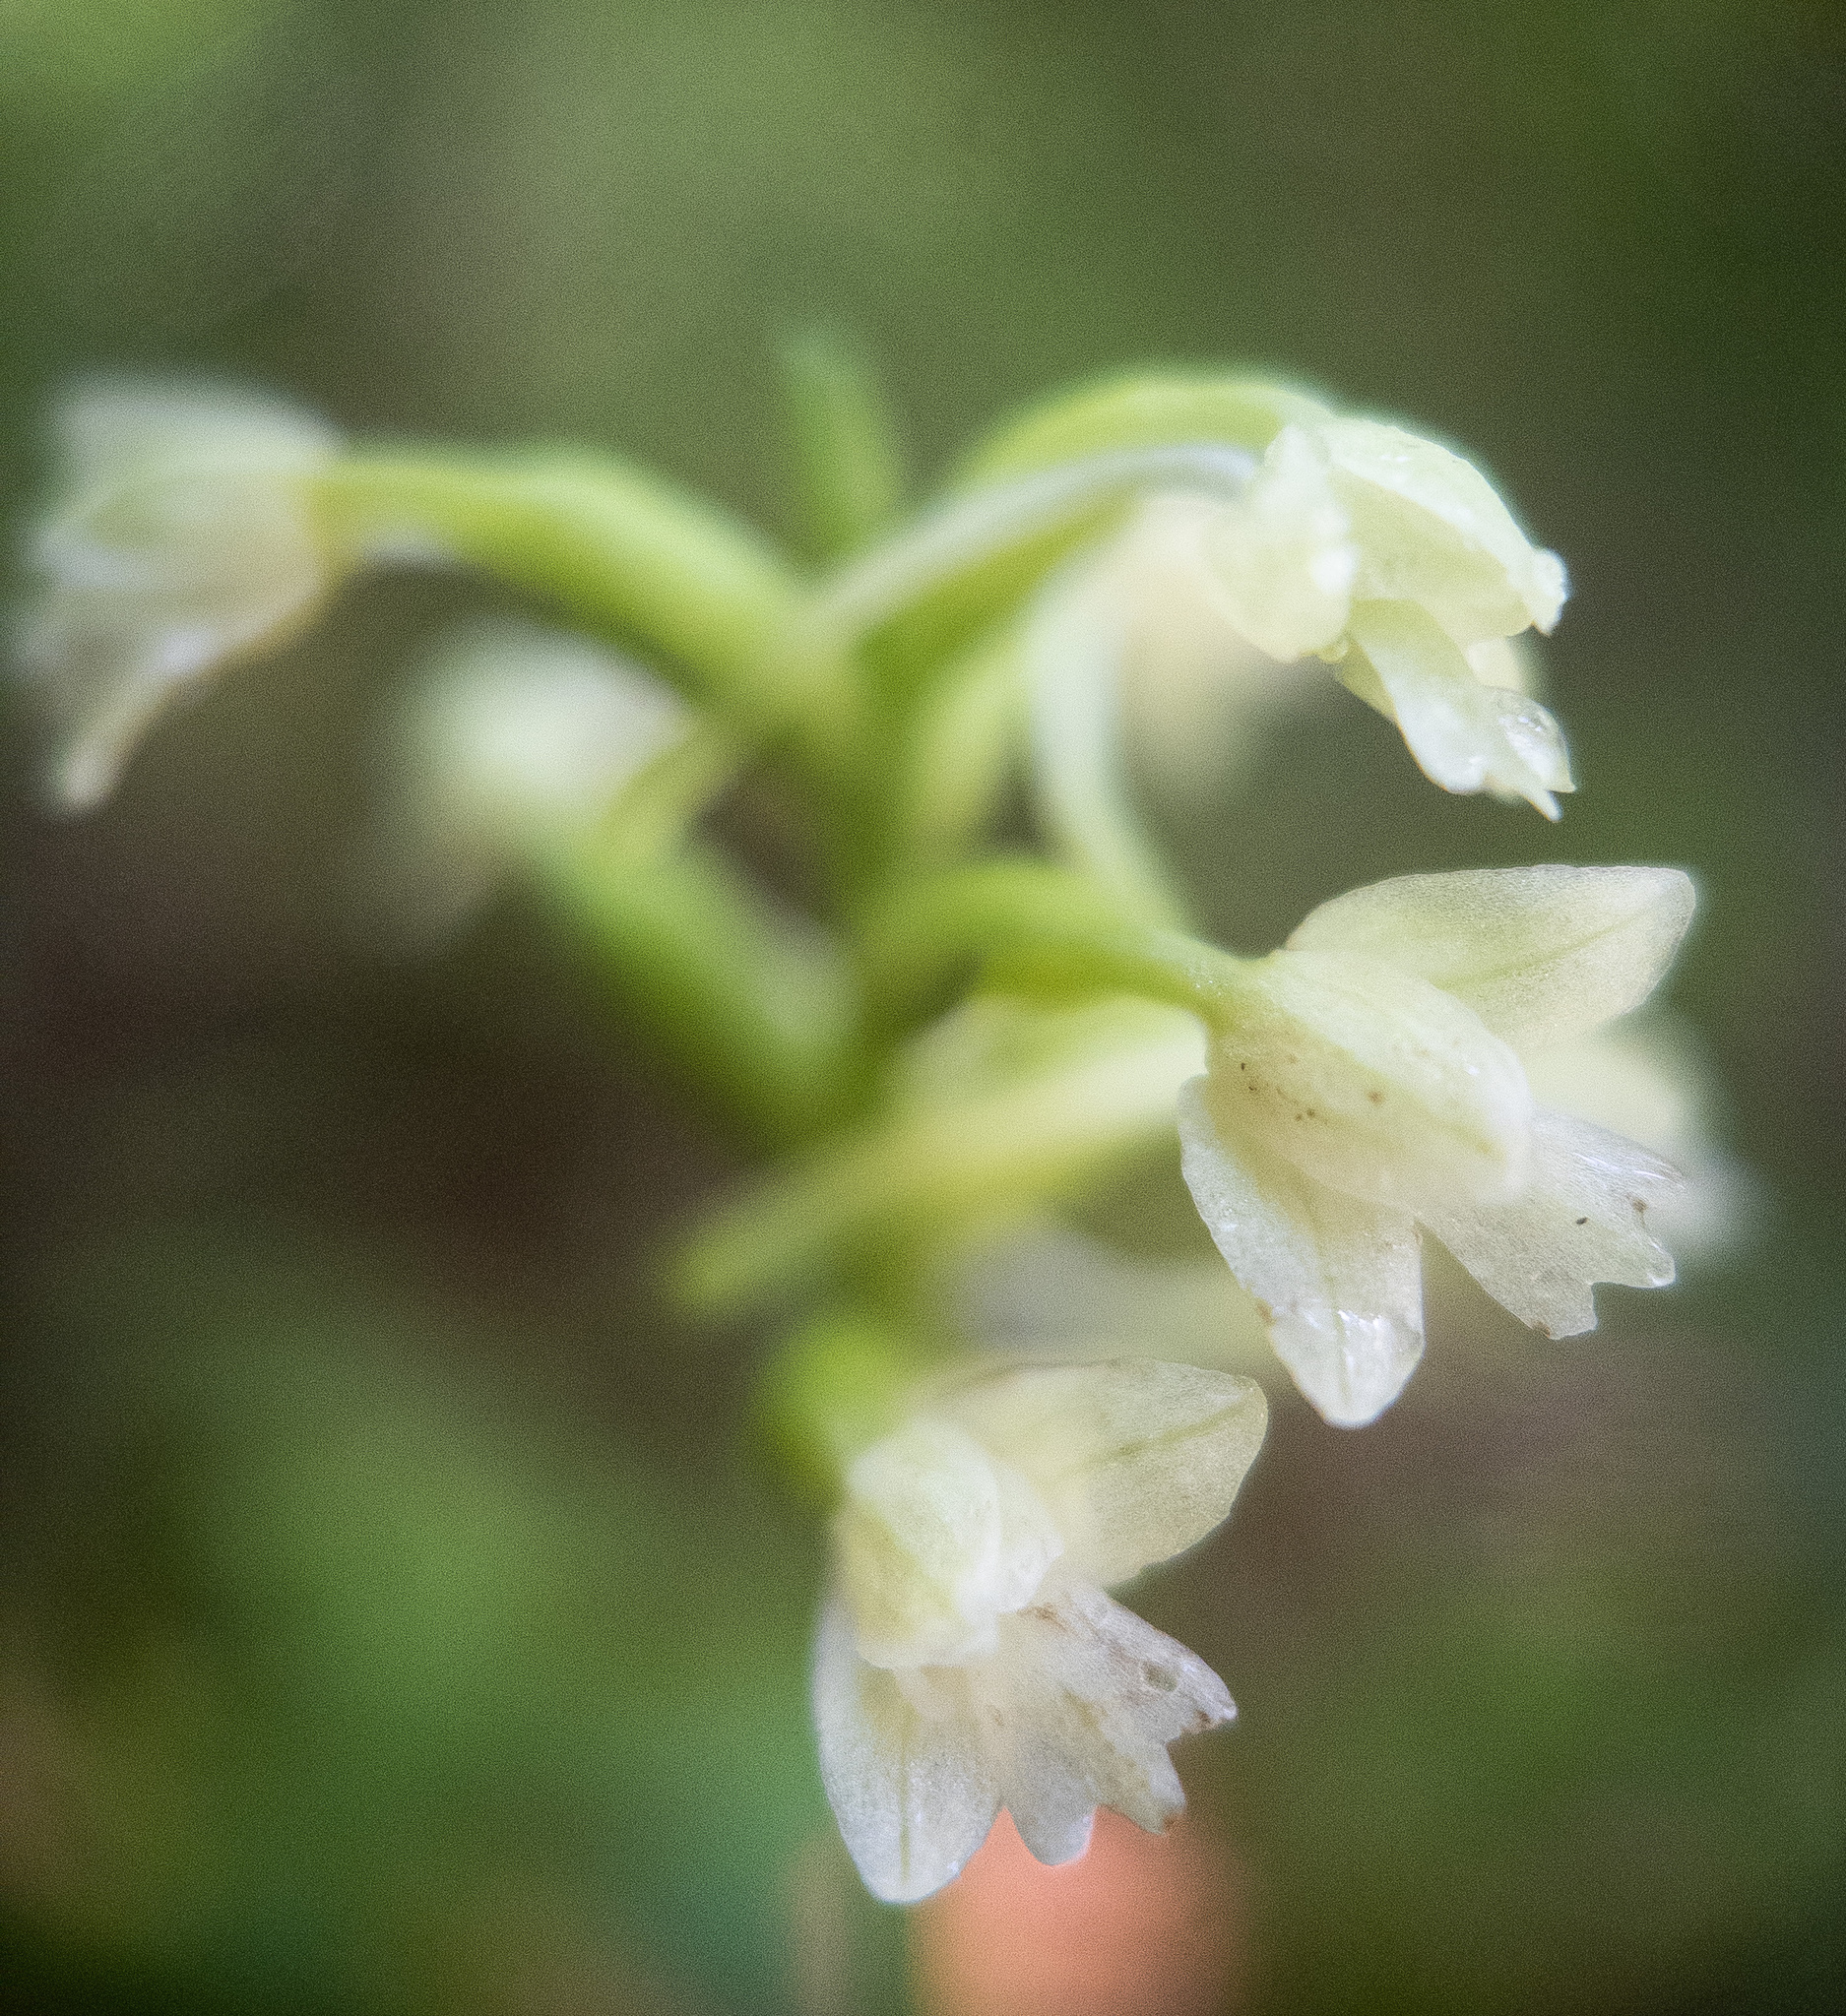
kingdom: Plantae
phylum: Tracheophyta
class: Liliopsida
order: Asparagales
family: Orchidaceae
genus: Platanthera
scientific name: Platanthera clavellata
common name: Club-spur orchid
